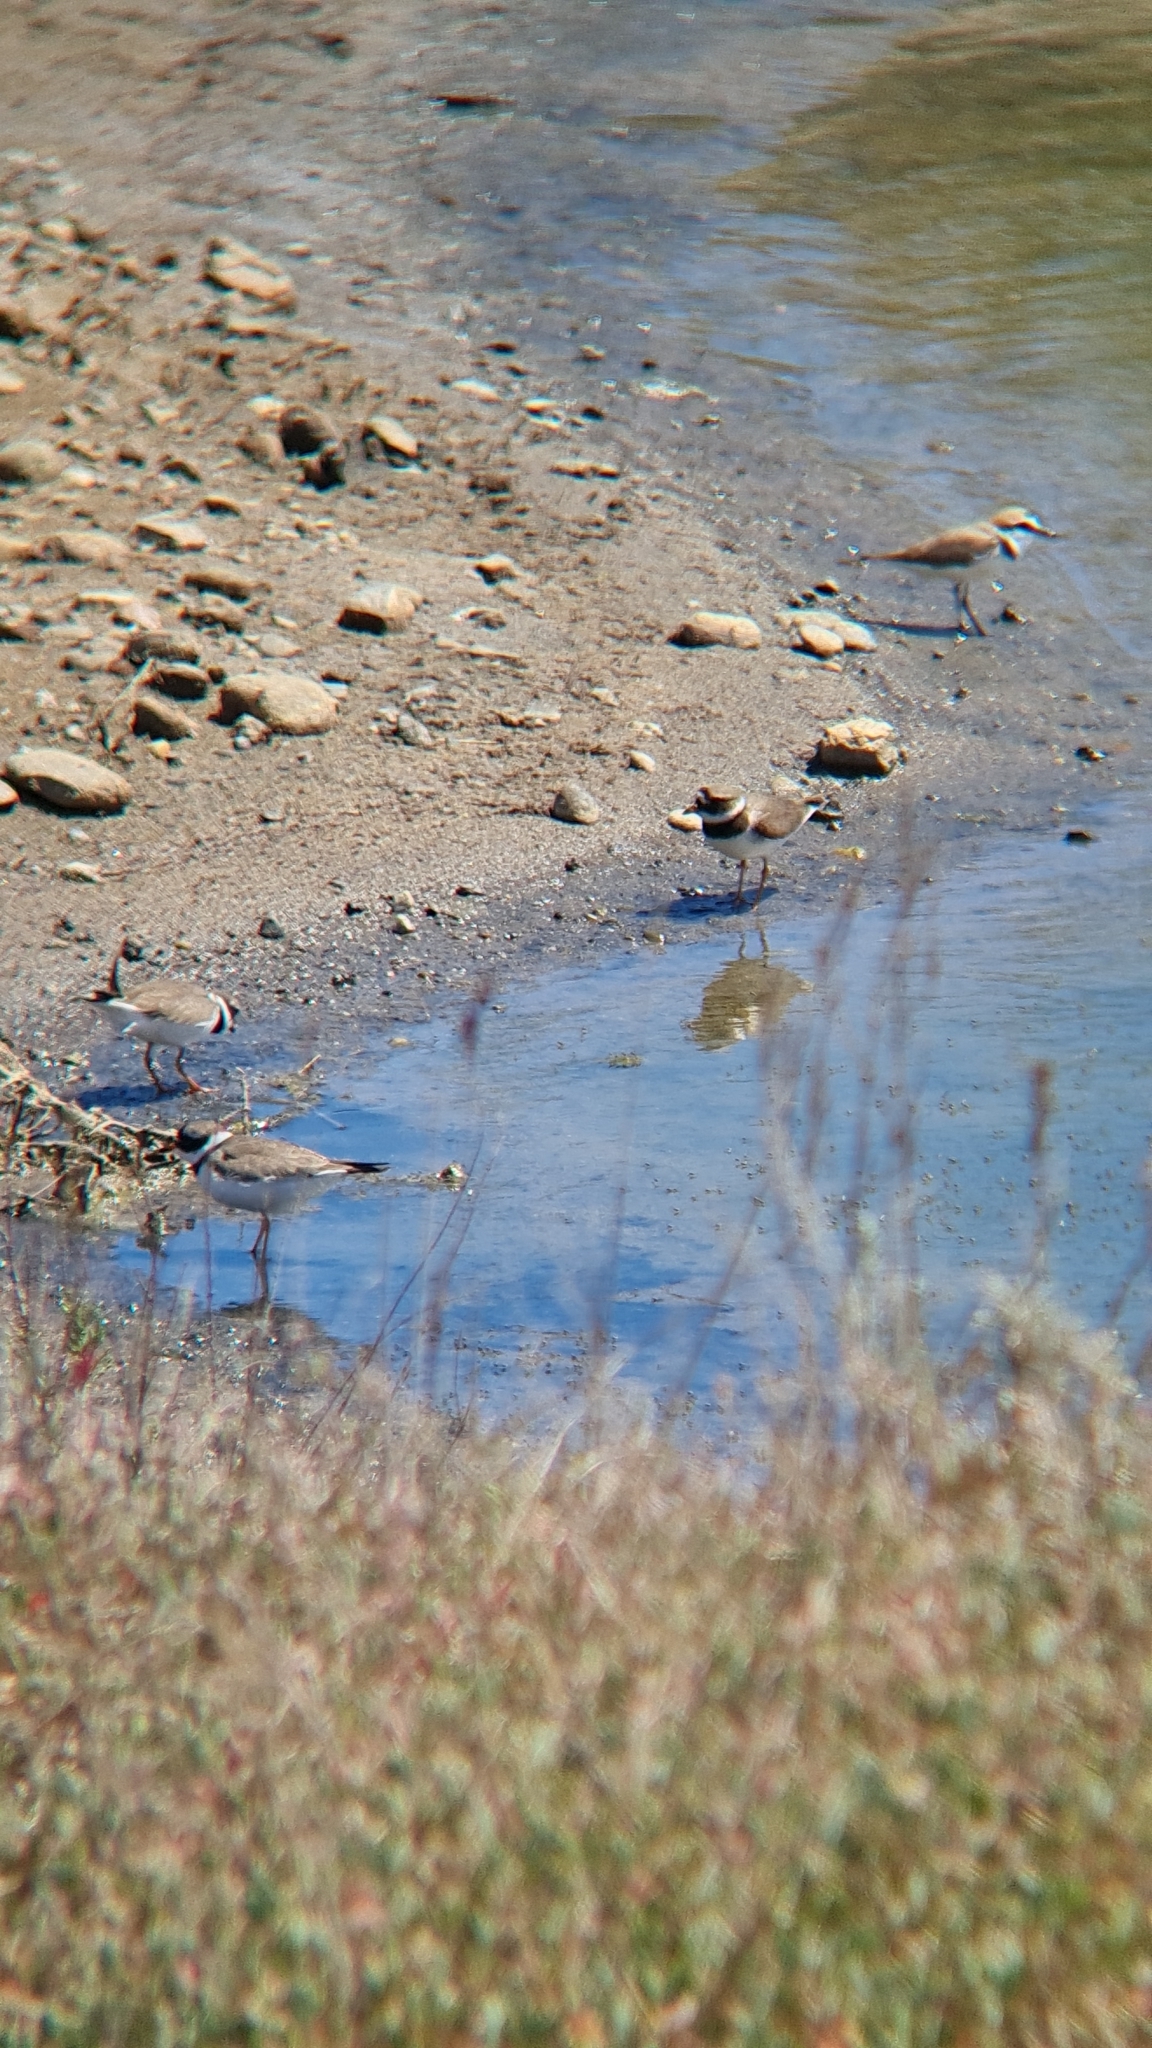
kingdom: Animalia
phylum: Chordata
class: Aves
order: Charadriiformes
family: Charadriidae
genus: Charadrius
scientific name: Charadrius hiaticula
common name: Common ringed plover
